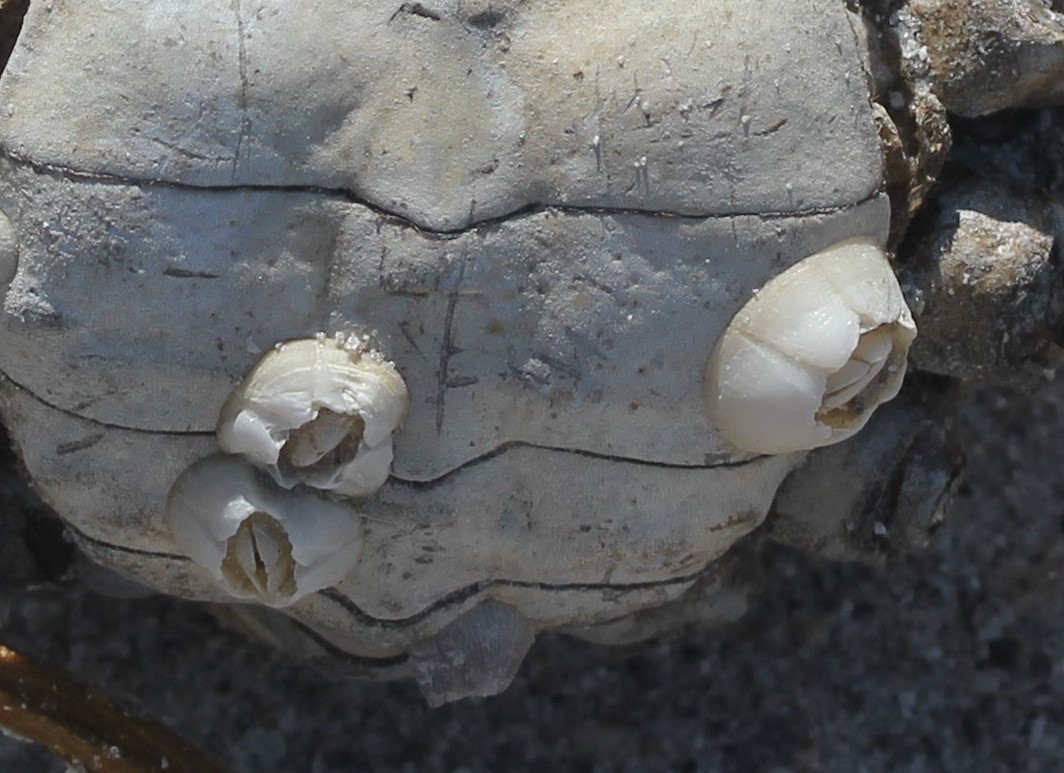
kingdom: Animalia
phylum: Arthropoda
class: Maxillopoda
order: Sessilia
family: Chelonibiidae
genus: Chelonibia
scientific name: Chelonibia testudinaria
